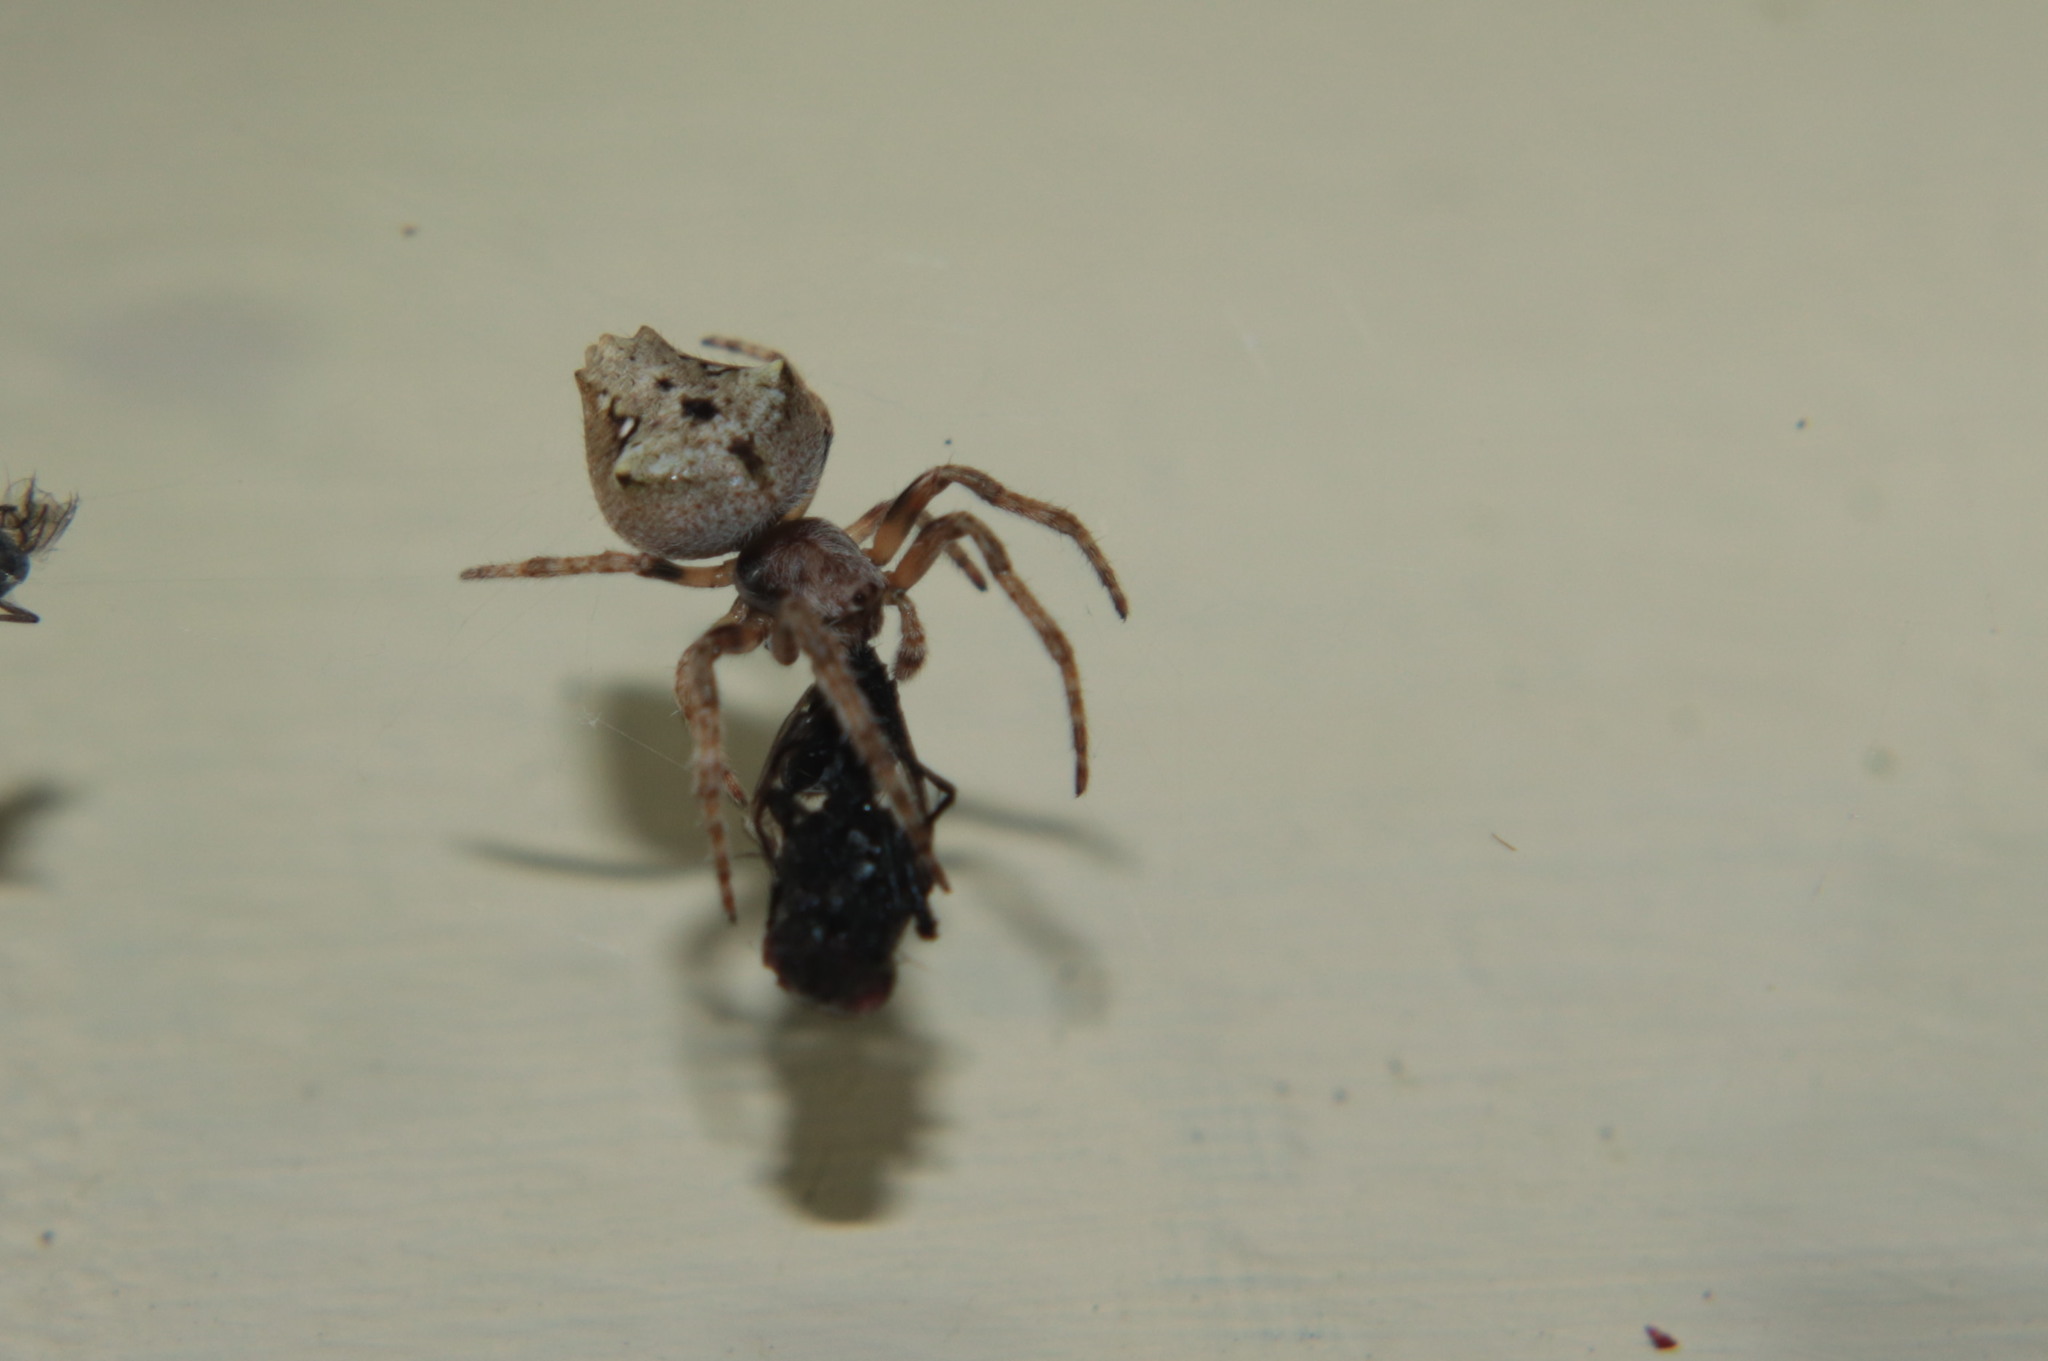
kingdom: Animalia
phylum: Arthropoda
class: Arachnida
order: Araneae
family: Araneidae
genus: Eriophora
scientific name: Eriophora pustulosa
